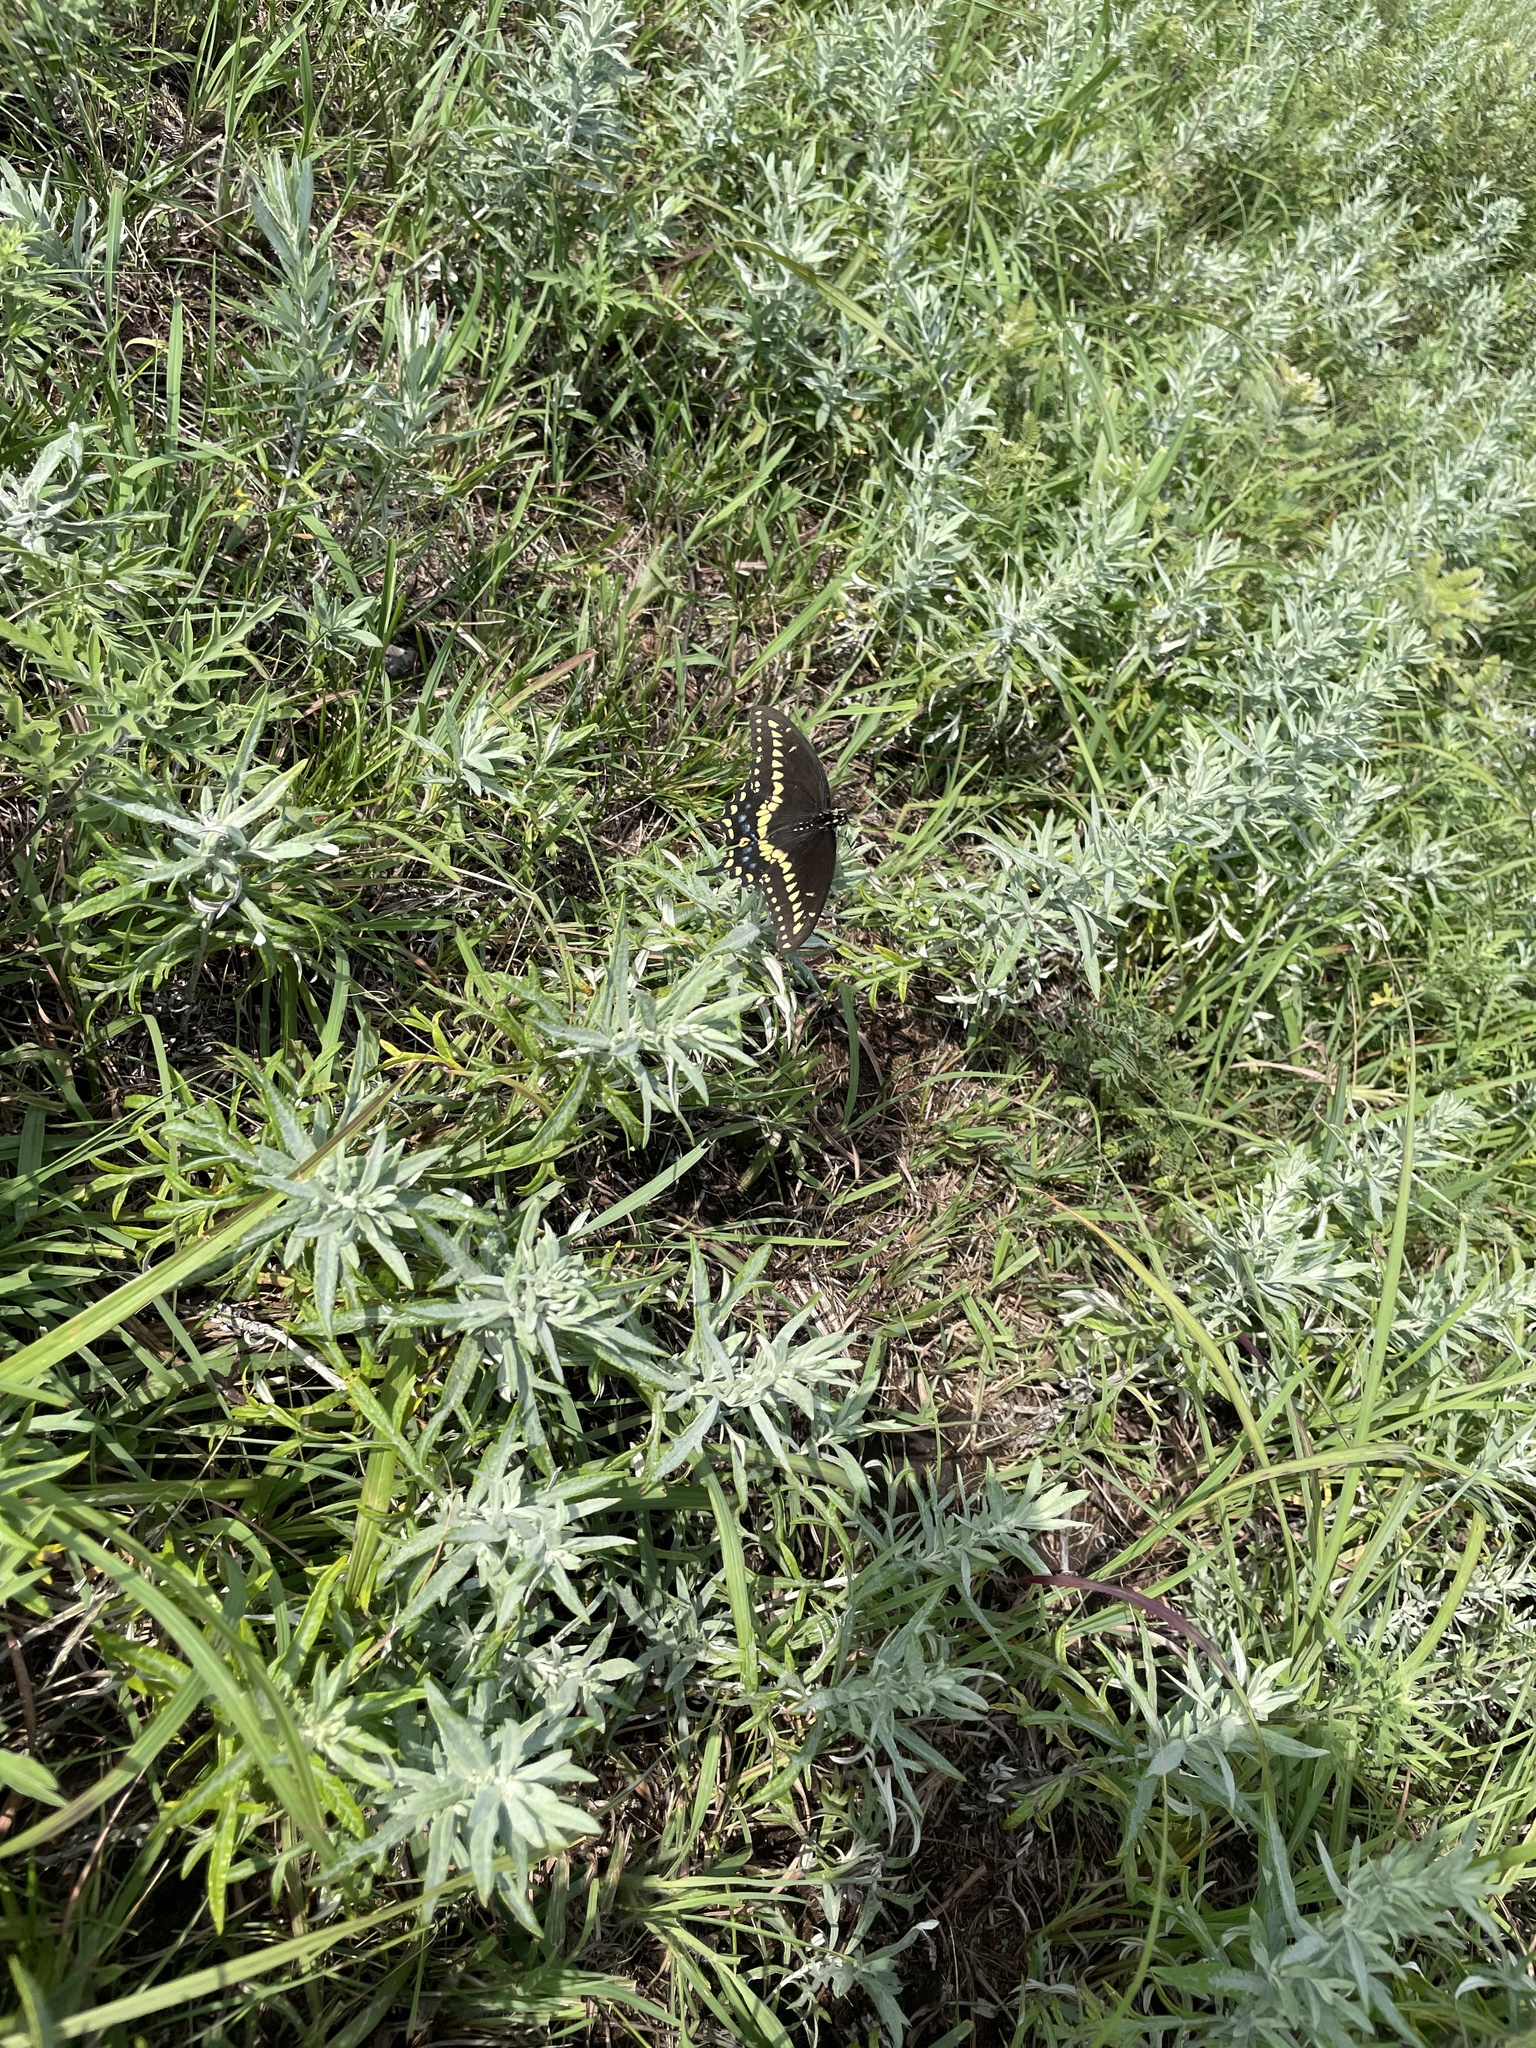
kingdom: Animalia
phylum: Arthropoda
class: Insecta
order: Lepidoptera
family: Papilionidae
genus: Papilio
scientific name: Papilio polyxenes
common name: Black swallowtail
